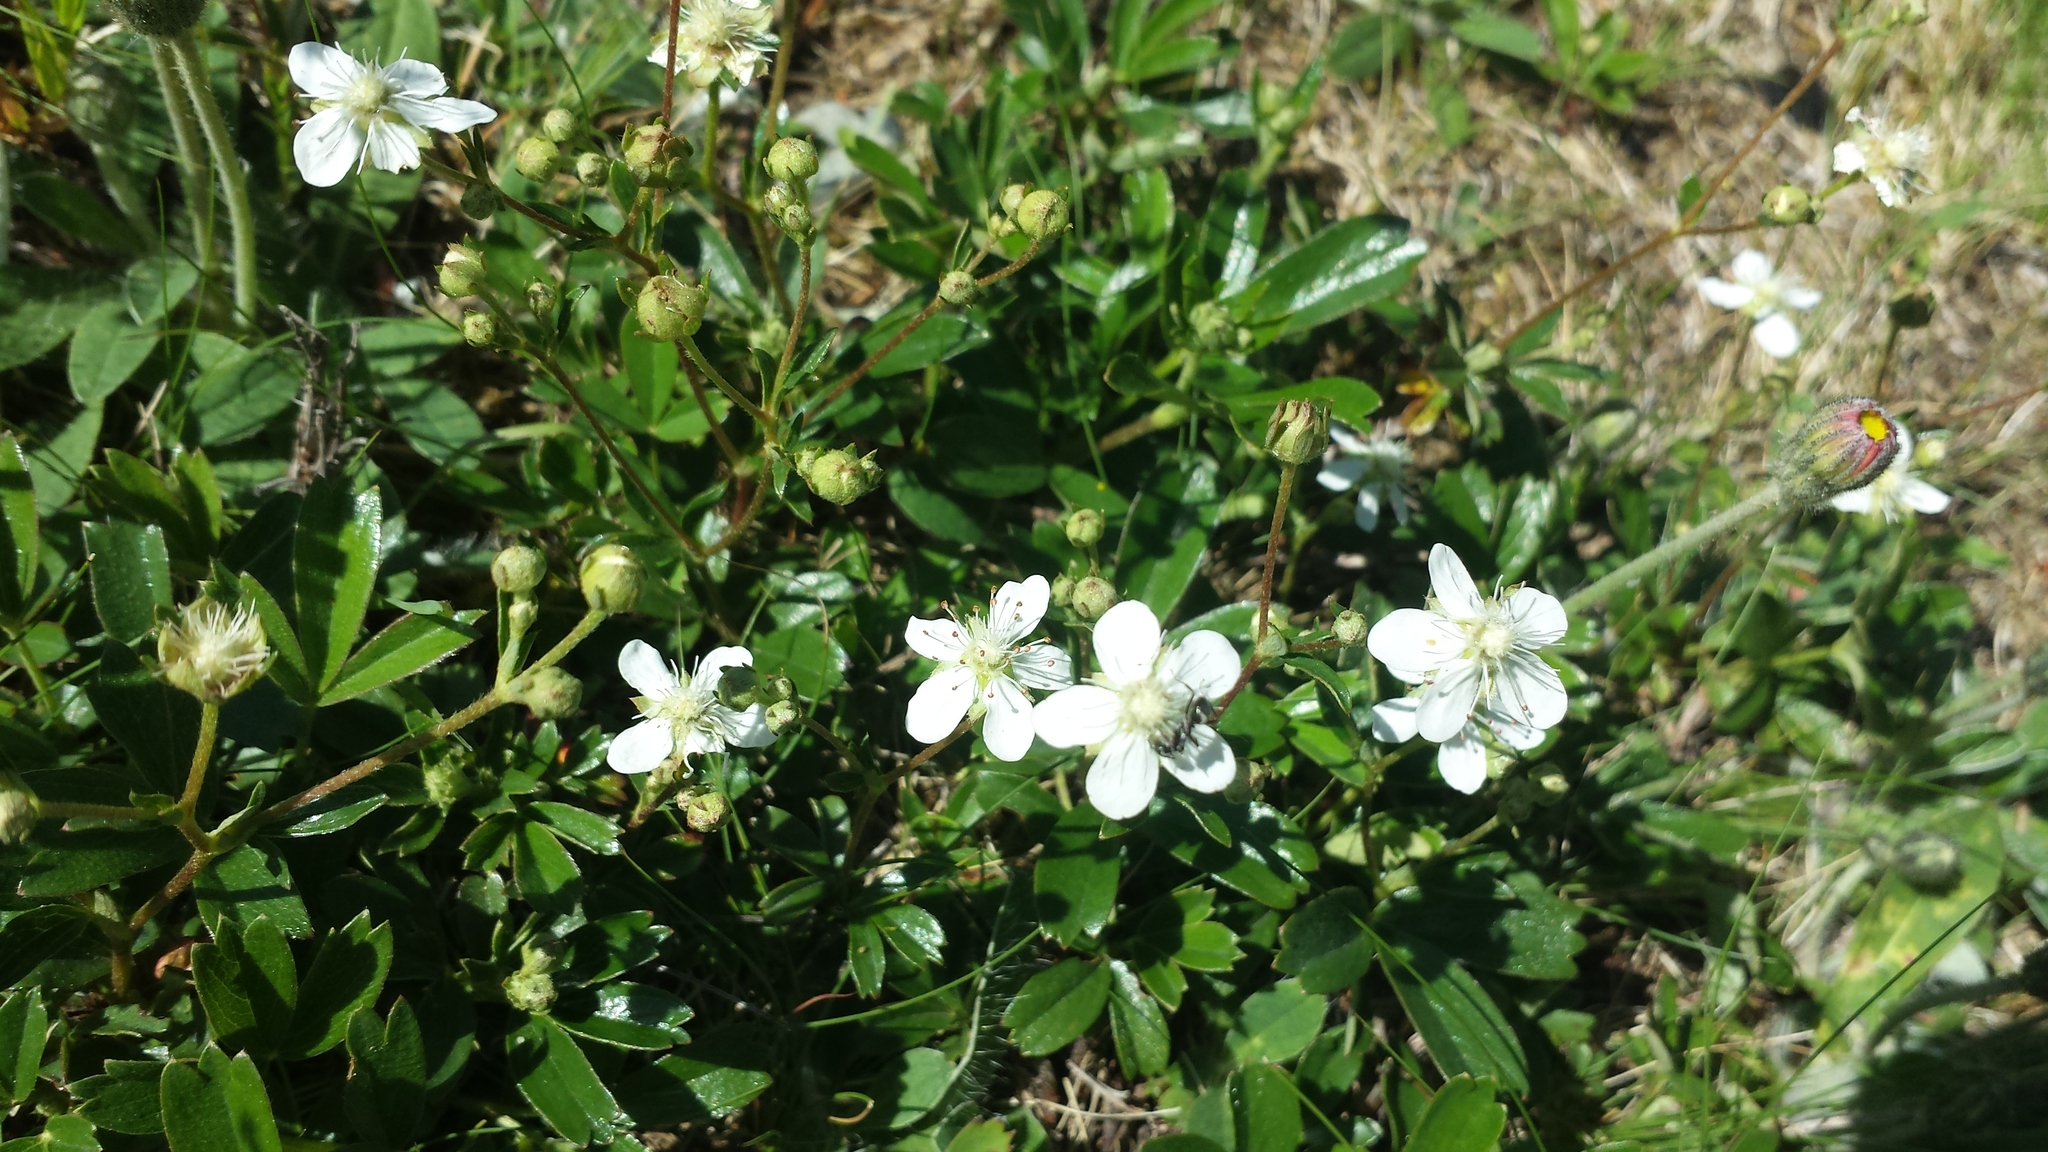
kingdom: Plantae
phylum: Tracheophyta
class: Magnoliopsida
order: Rosales
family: Rosaceae
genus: Sibbaldia
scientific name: Sibbaldia tridentata
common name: Three-toothed cinquefoil
